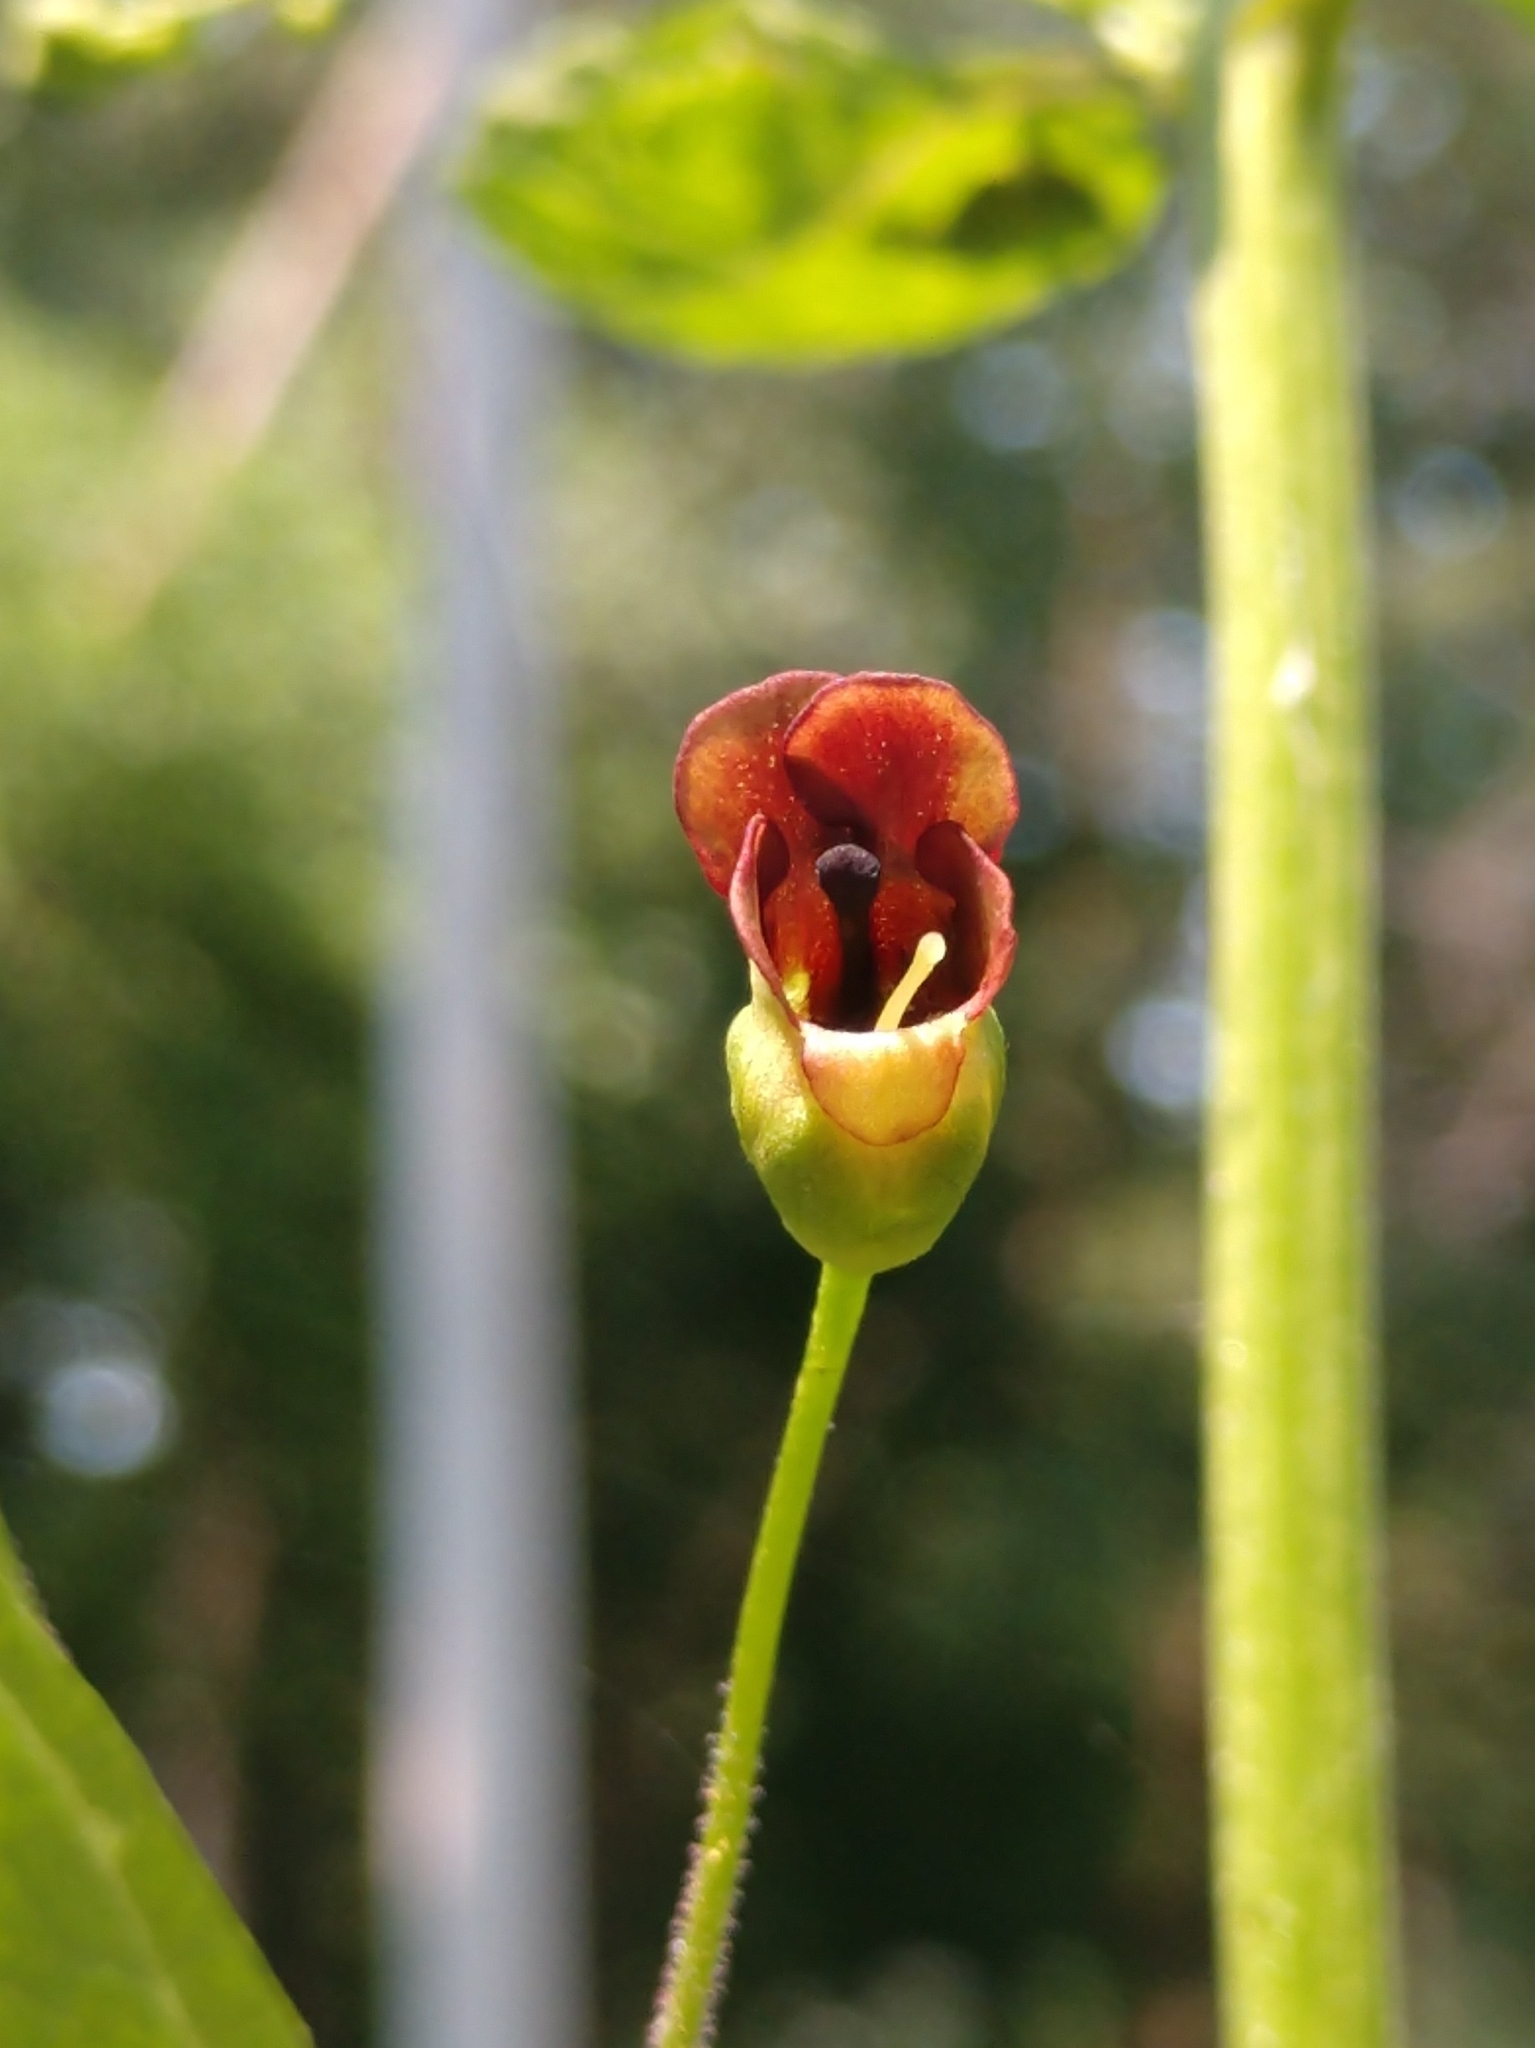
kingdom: Plantae
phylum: Tracheophyta
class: Magnoliopsida
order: Lamiales
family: Scrophulariaceae
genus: Scrophularia
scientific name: Scrophularia marilandica
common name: Eastern figwort
